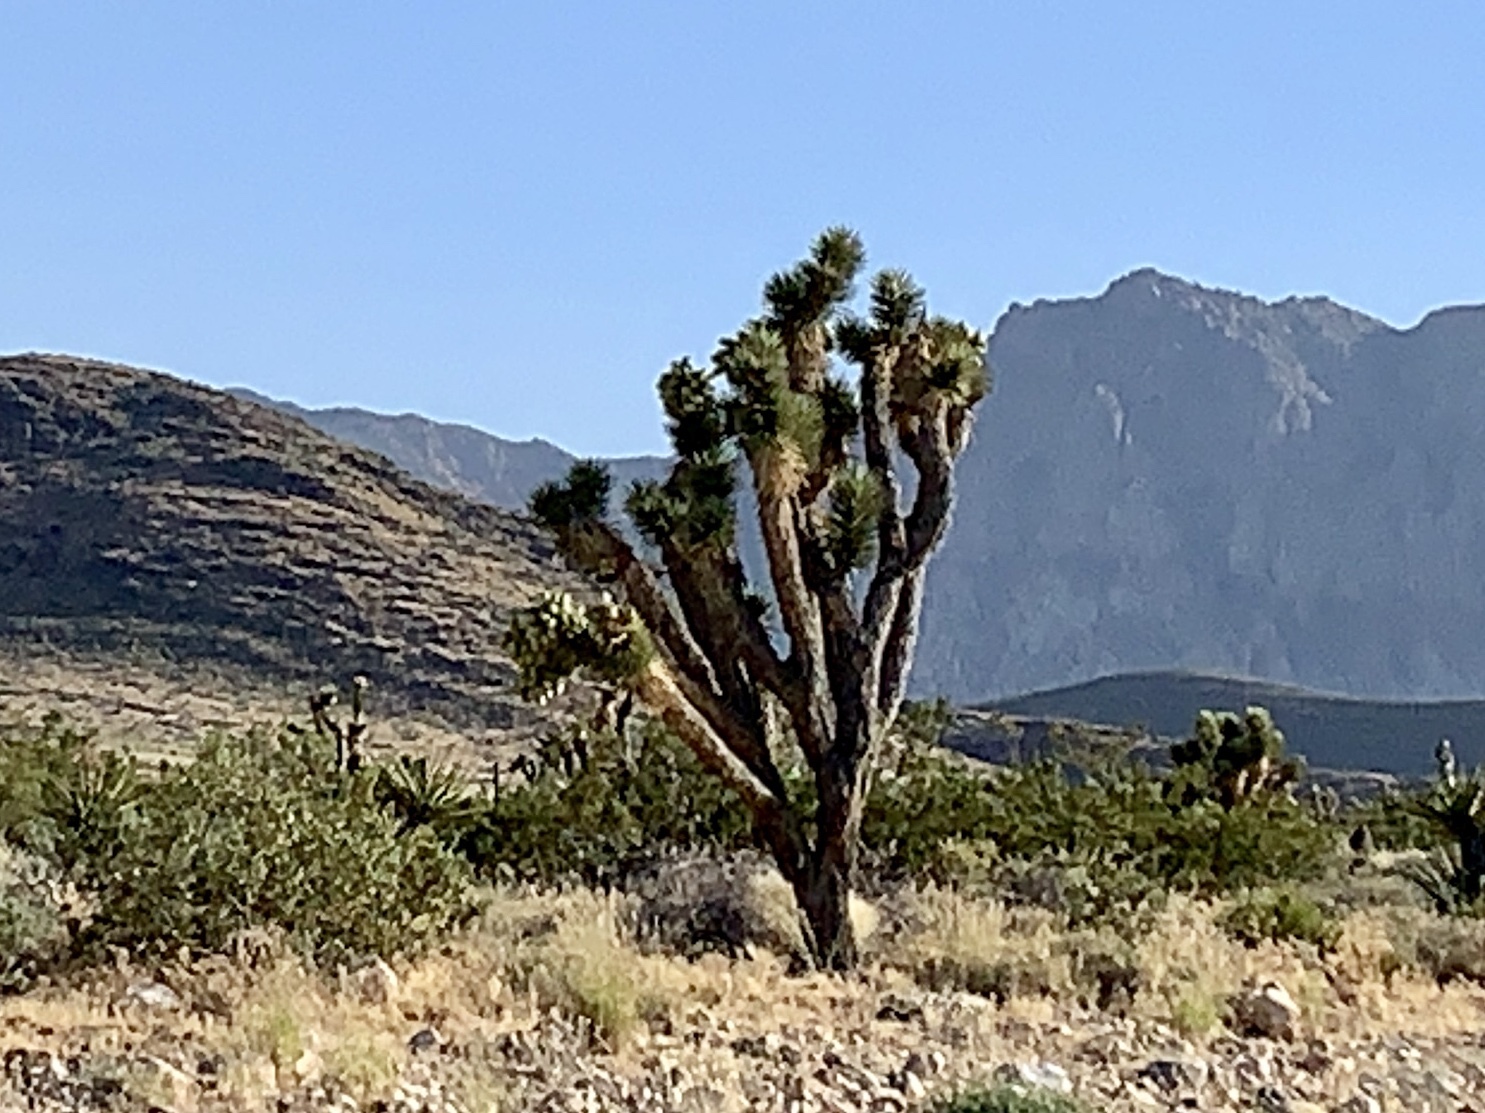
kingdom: Plantae
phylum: Tracheophyta
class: Liliopsida
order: Asparagales
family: Asparagaceae
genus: Yucca
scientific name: Yucca brevifolia
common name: Joshua tree
